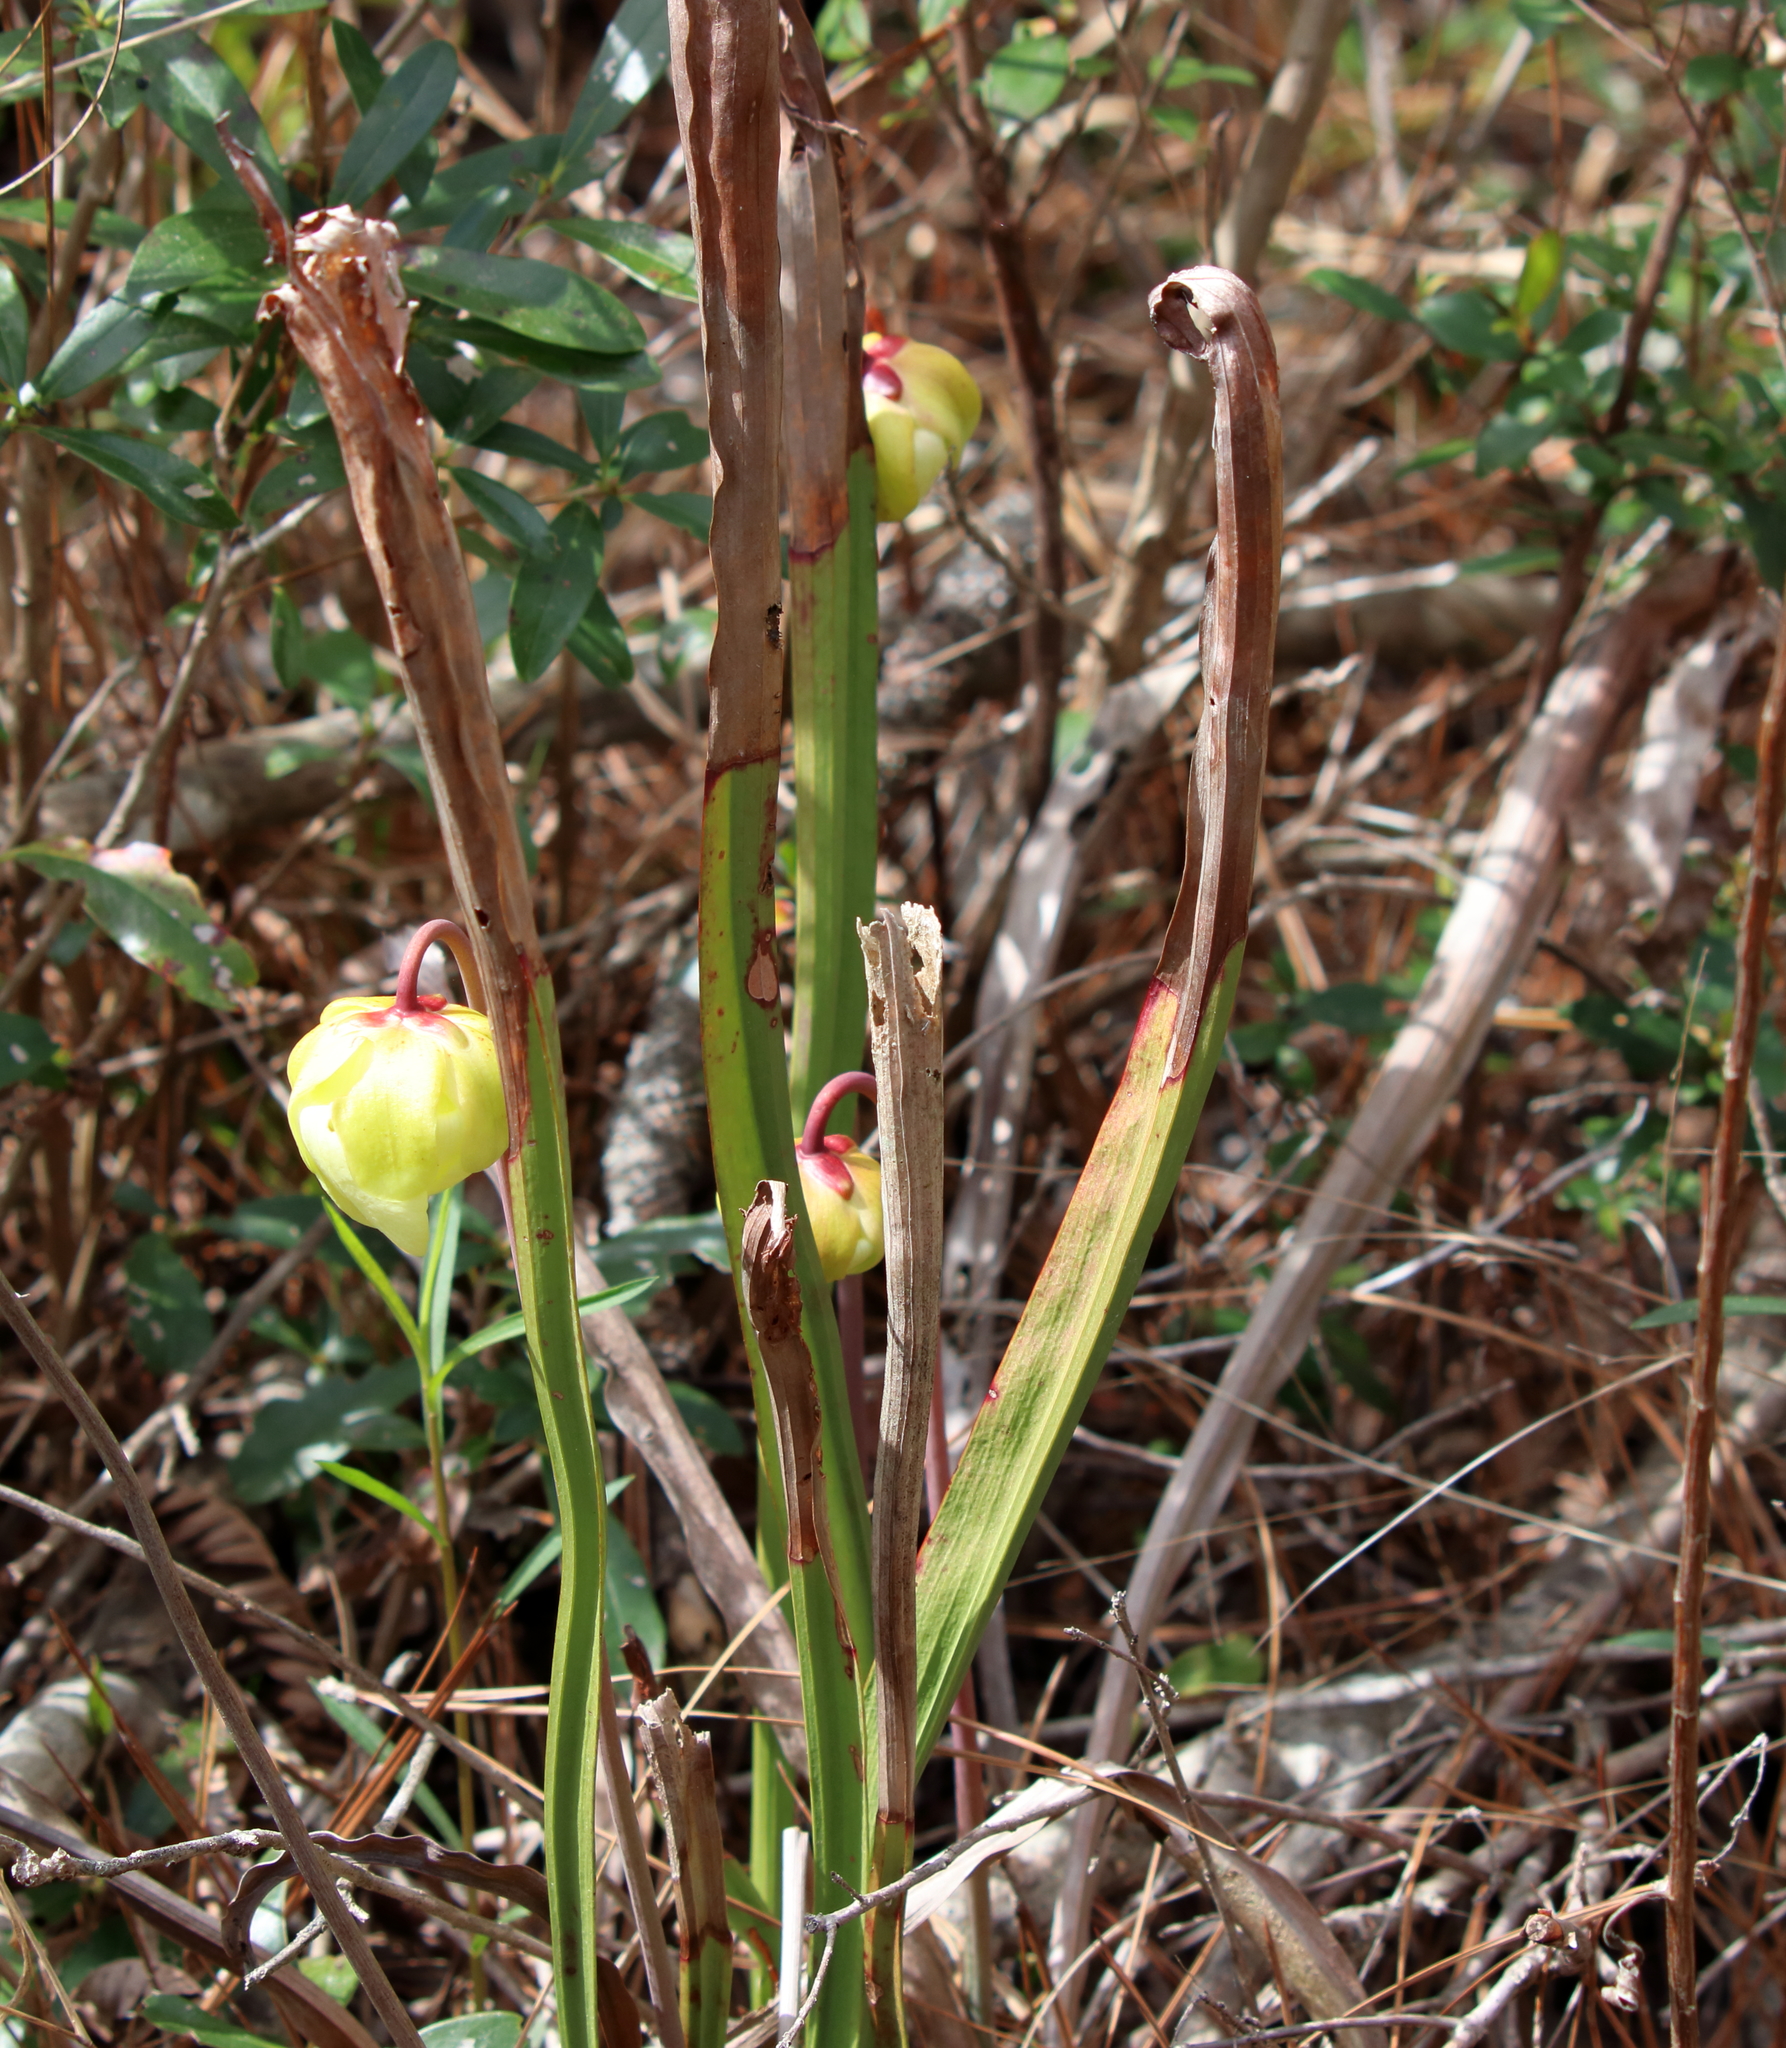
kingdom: Plantae
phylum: Tracheophyta
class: Magnoliopsida
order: Ericales
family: Sarraceniaceae
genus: Sarracenia
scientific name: Sarracenia alata
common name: Yellow trumpets
